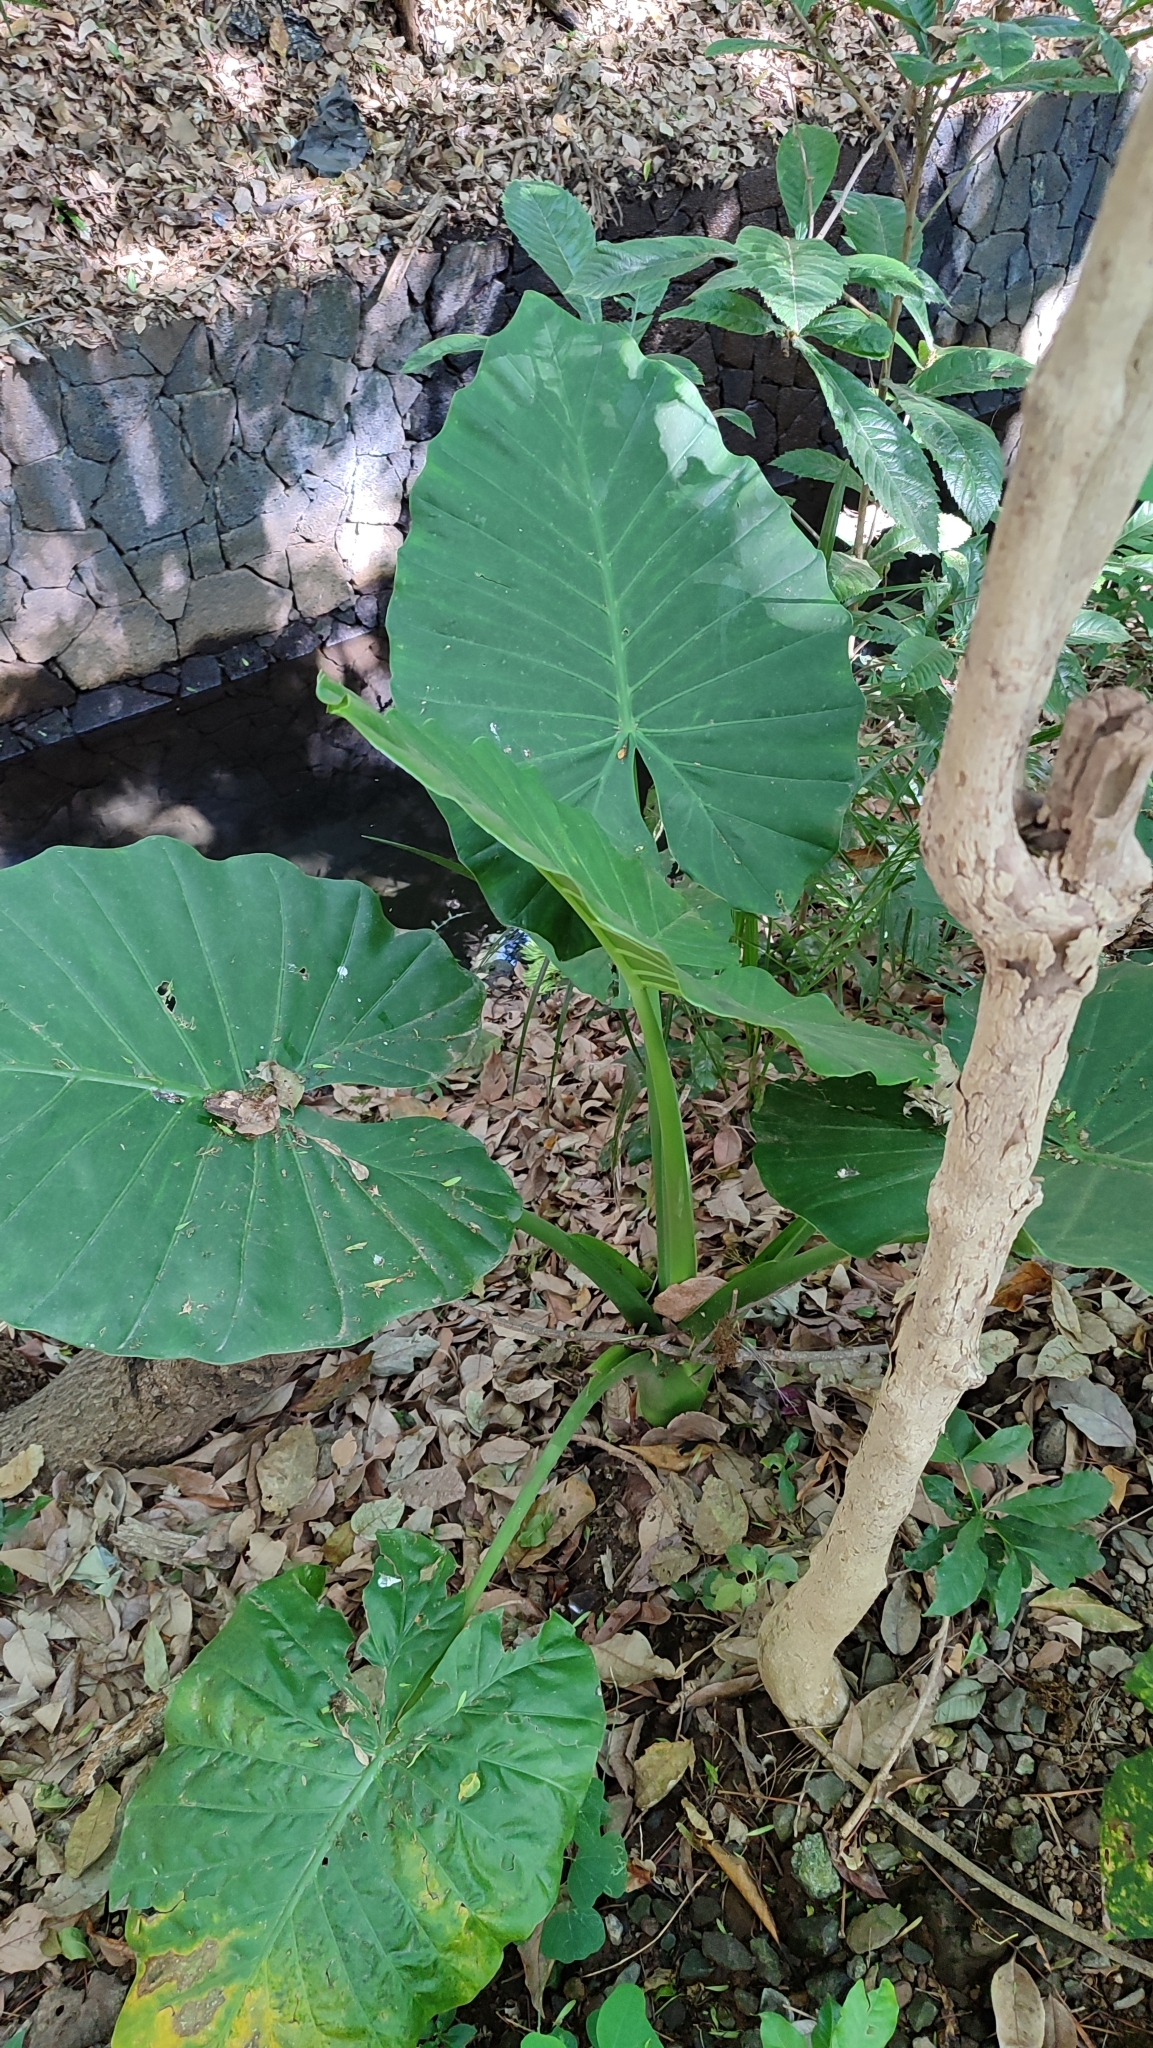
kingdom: Plantae
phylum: Tracheophyta
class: Liliopsida
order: Alismatales
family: Araceae
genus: Xanthosoma
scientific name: Xanthosoma robustum
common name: Capote
